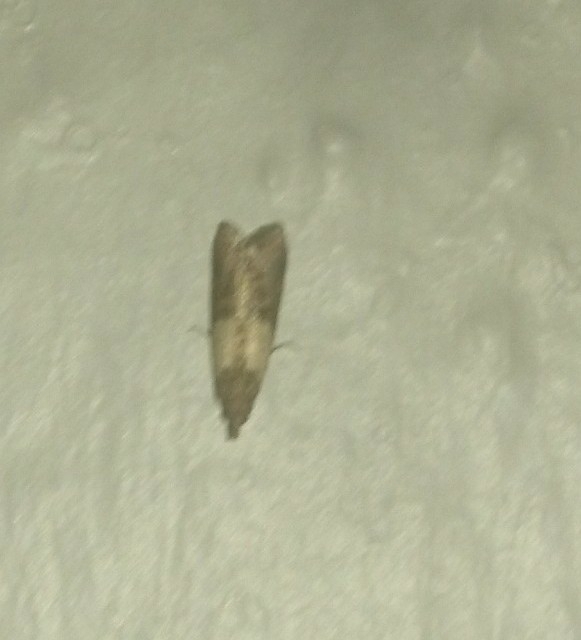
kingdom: Animalia
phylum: Arthropoda
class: Insecta
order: Lepidoptera
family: Pyralidae
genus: Plodia
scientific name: Plodia interpunctella
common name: Indian meal moth
